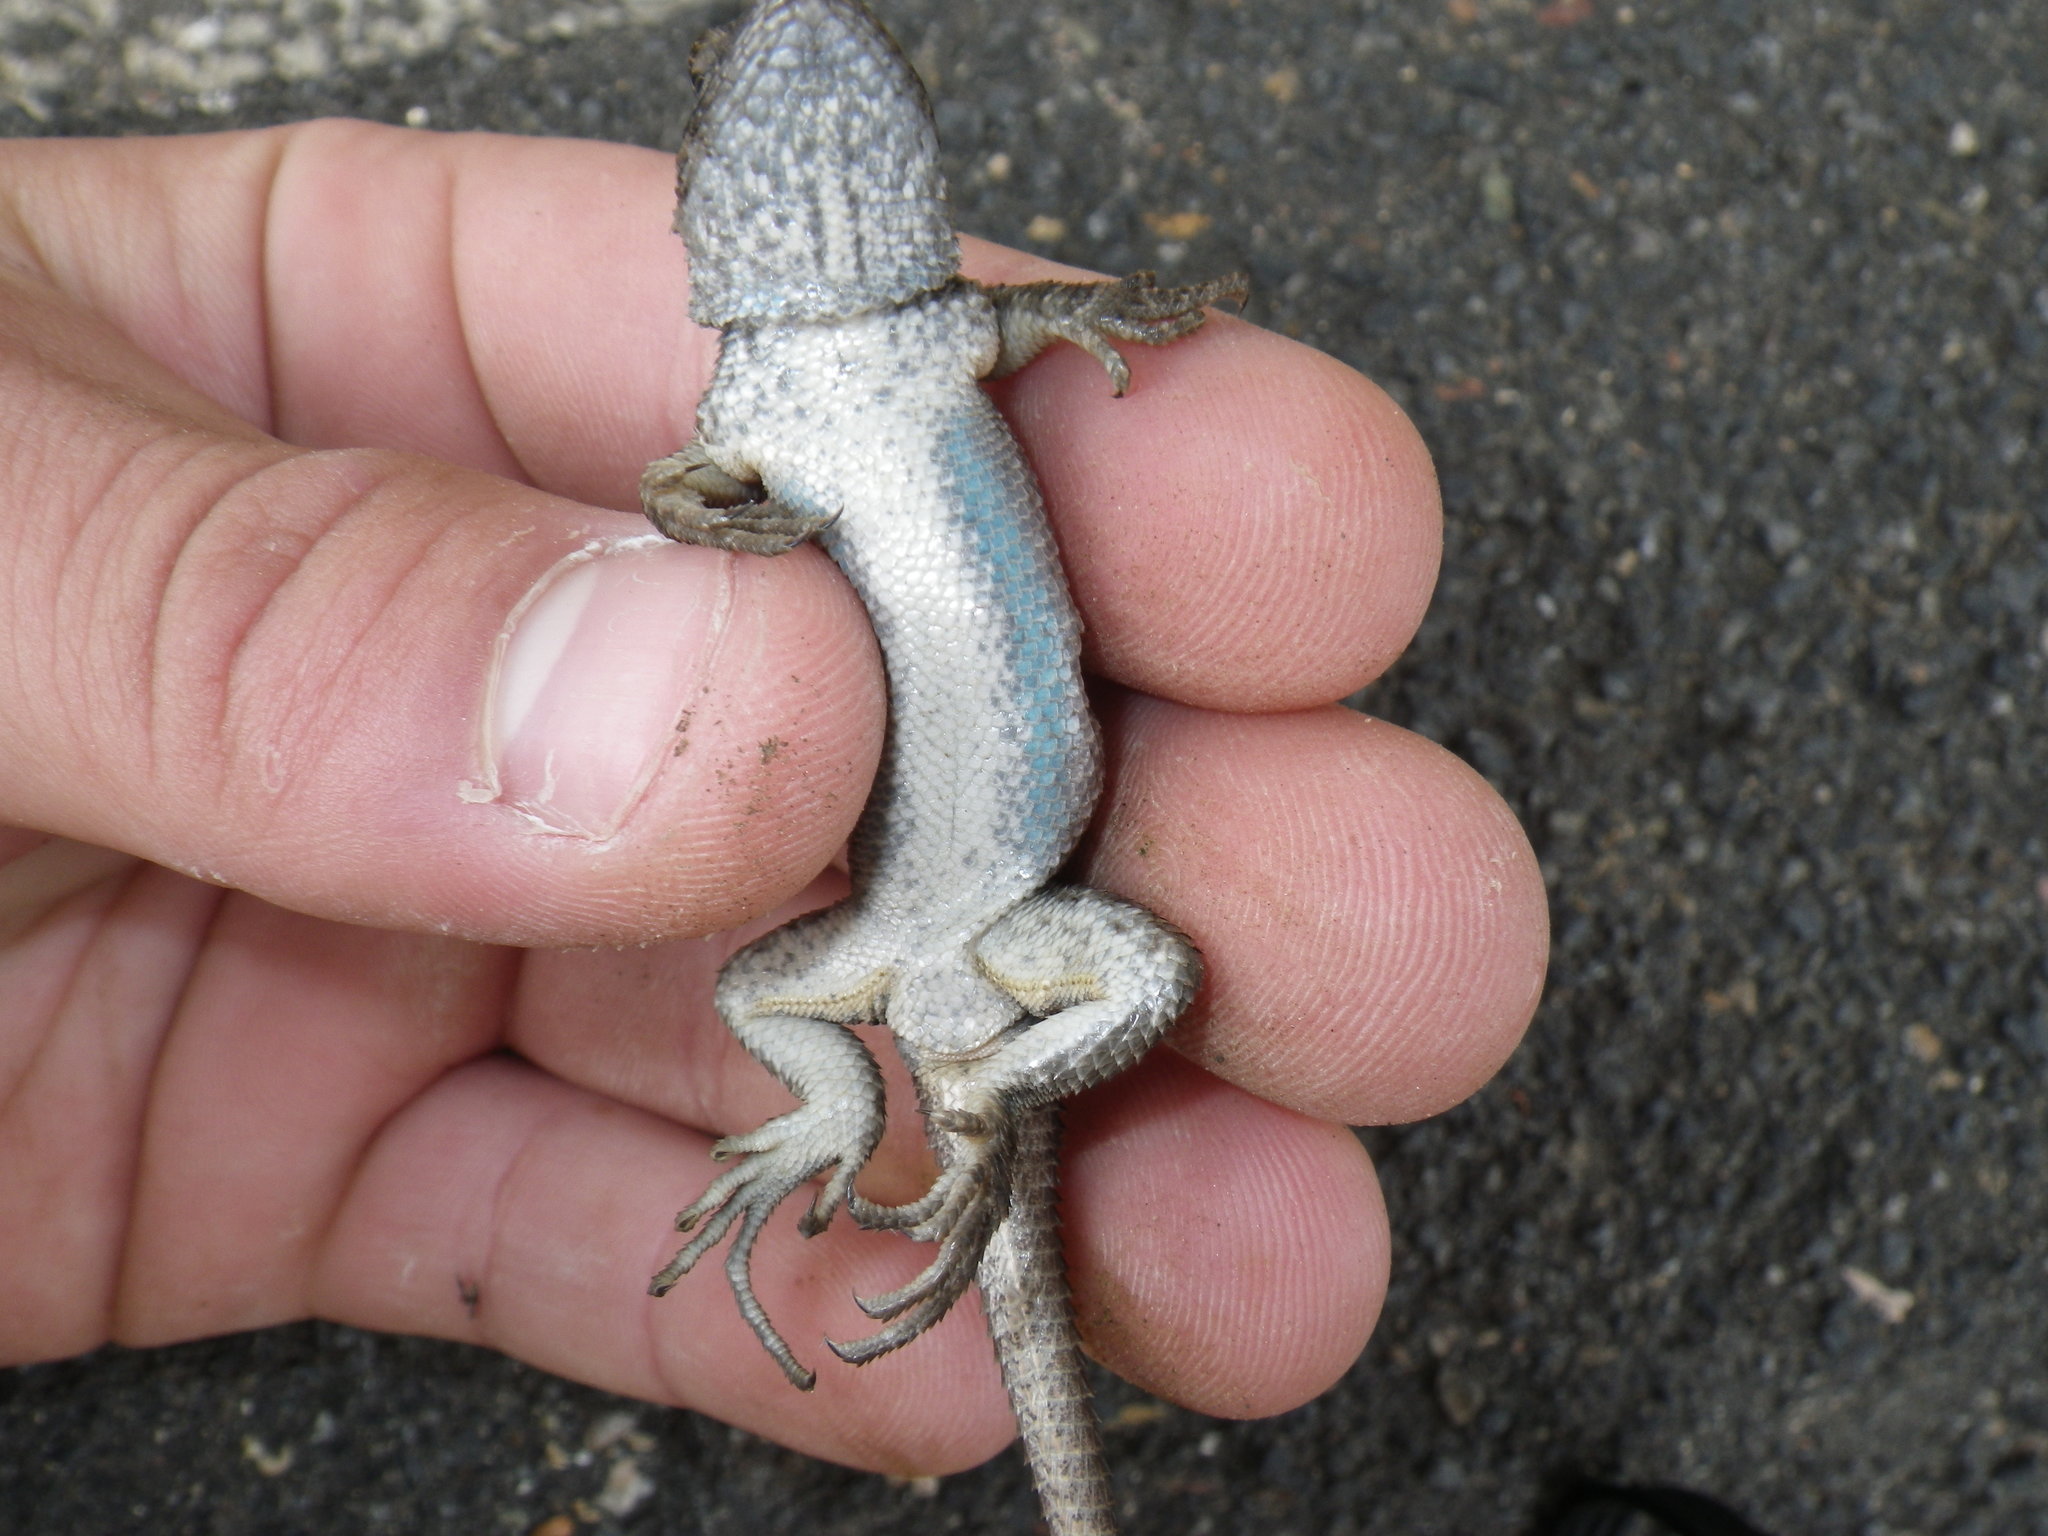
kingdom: Animalia
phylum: Chordata
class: Squamata
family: Phrynosomatidae
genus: Sceloporus
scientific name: Sceloporus occidentalis
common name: Western fence lizard
